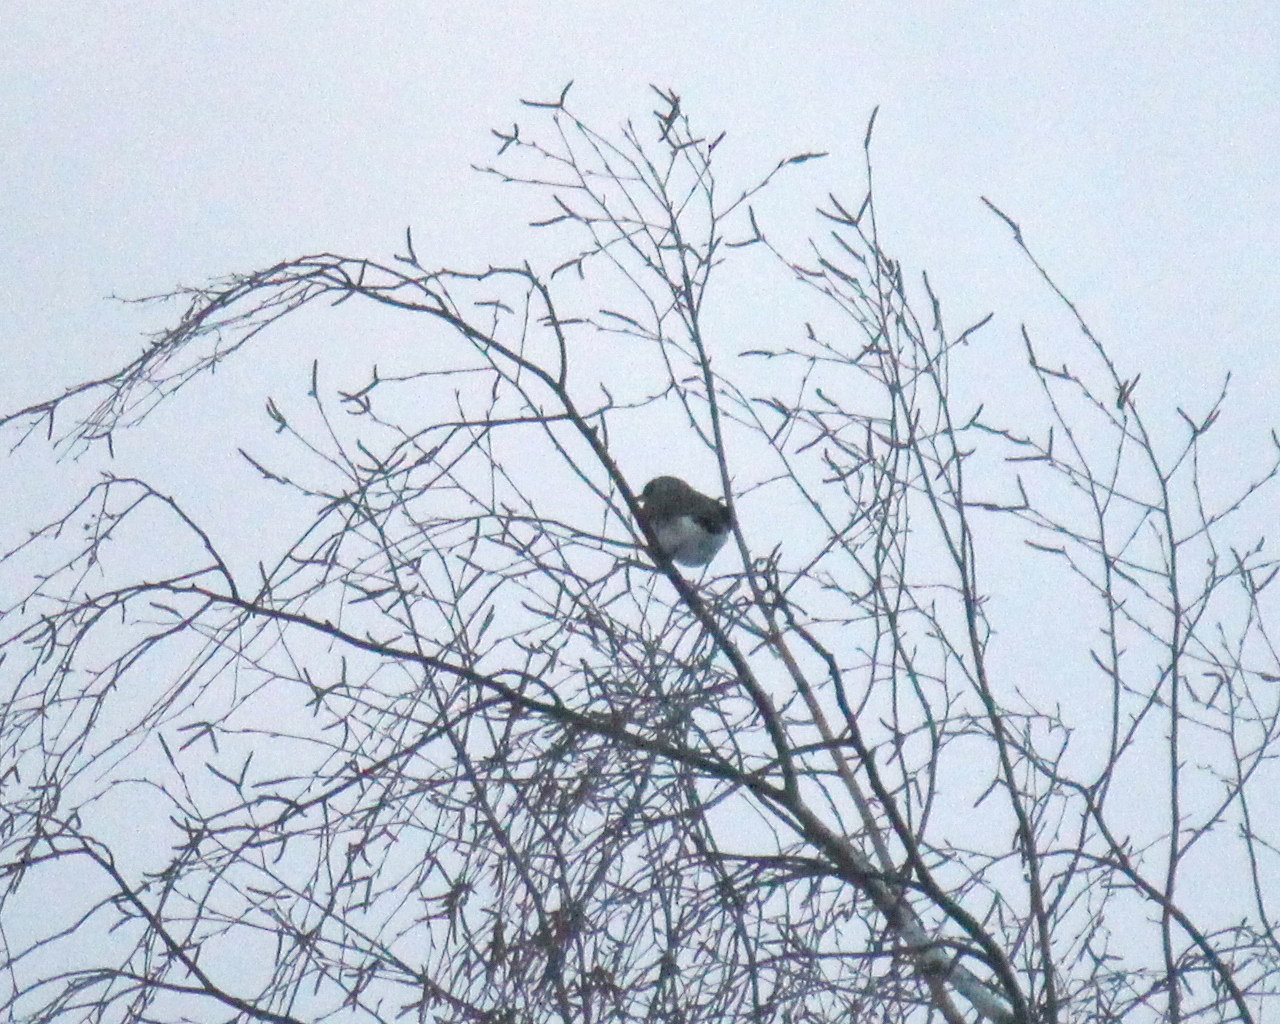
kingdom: Animalia
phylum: Chordata
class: Aves
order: Passeriformes
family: Turdidae
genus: Turdus
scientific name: Turdus pilaris
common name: Fieldfare
